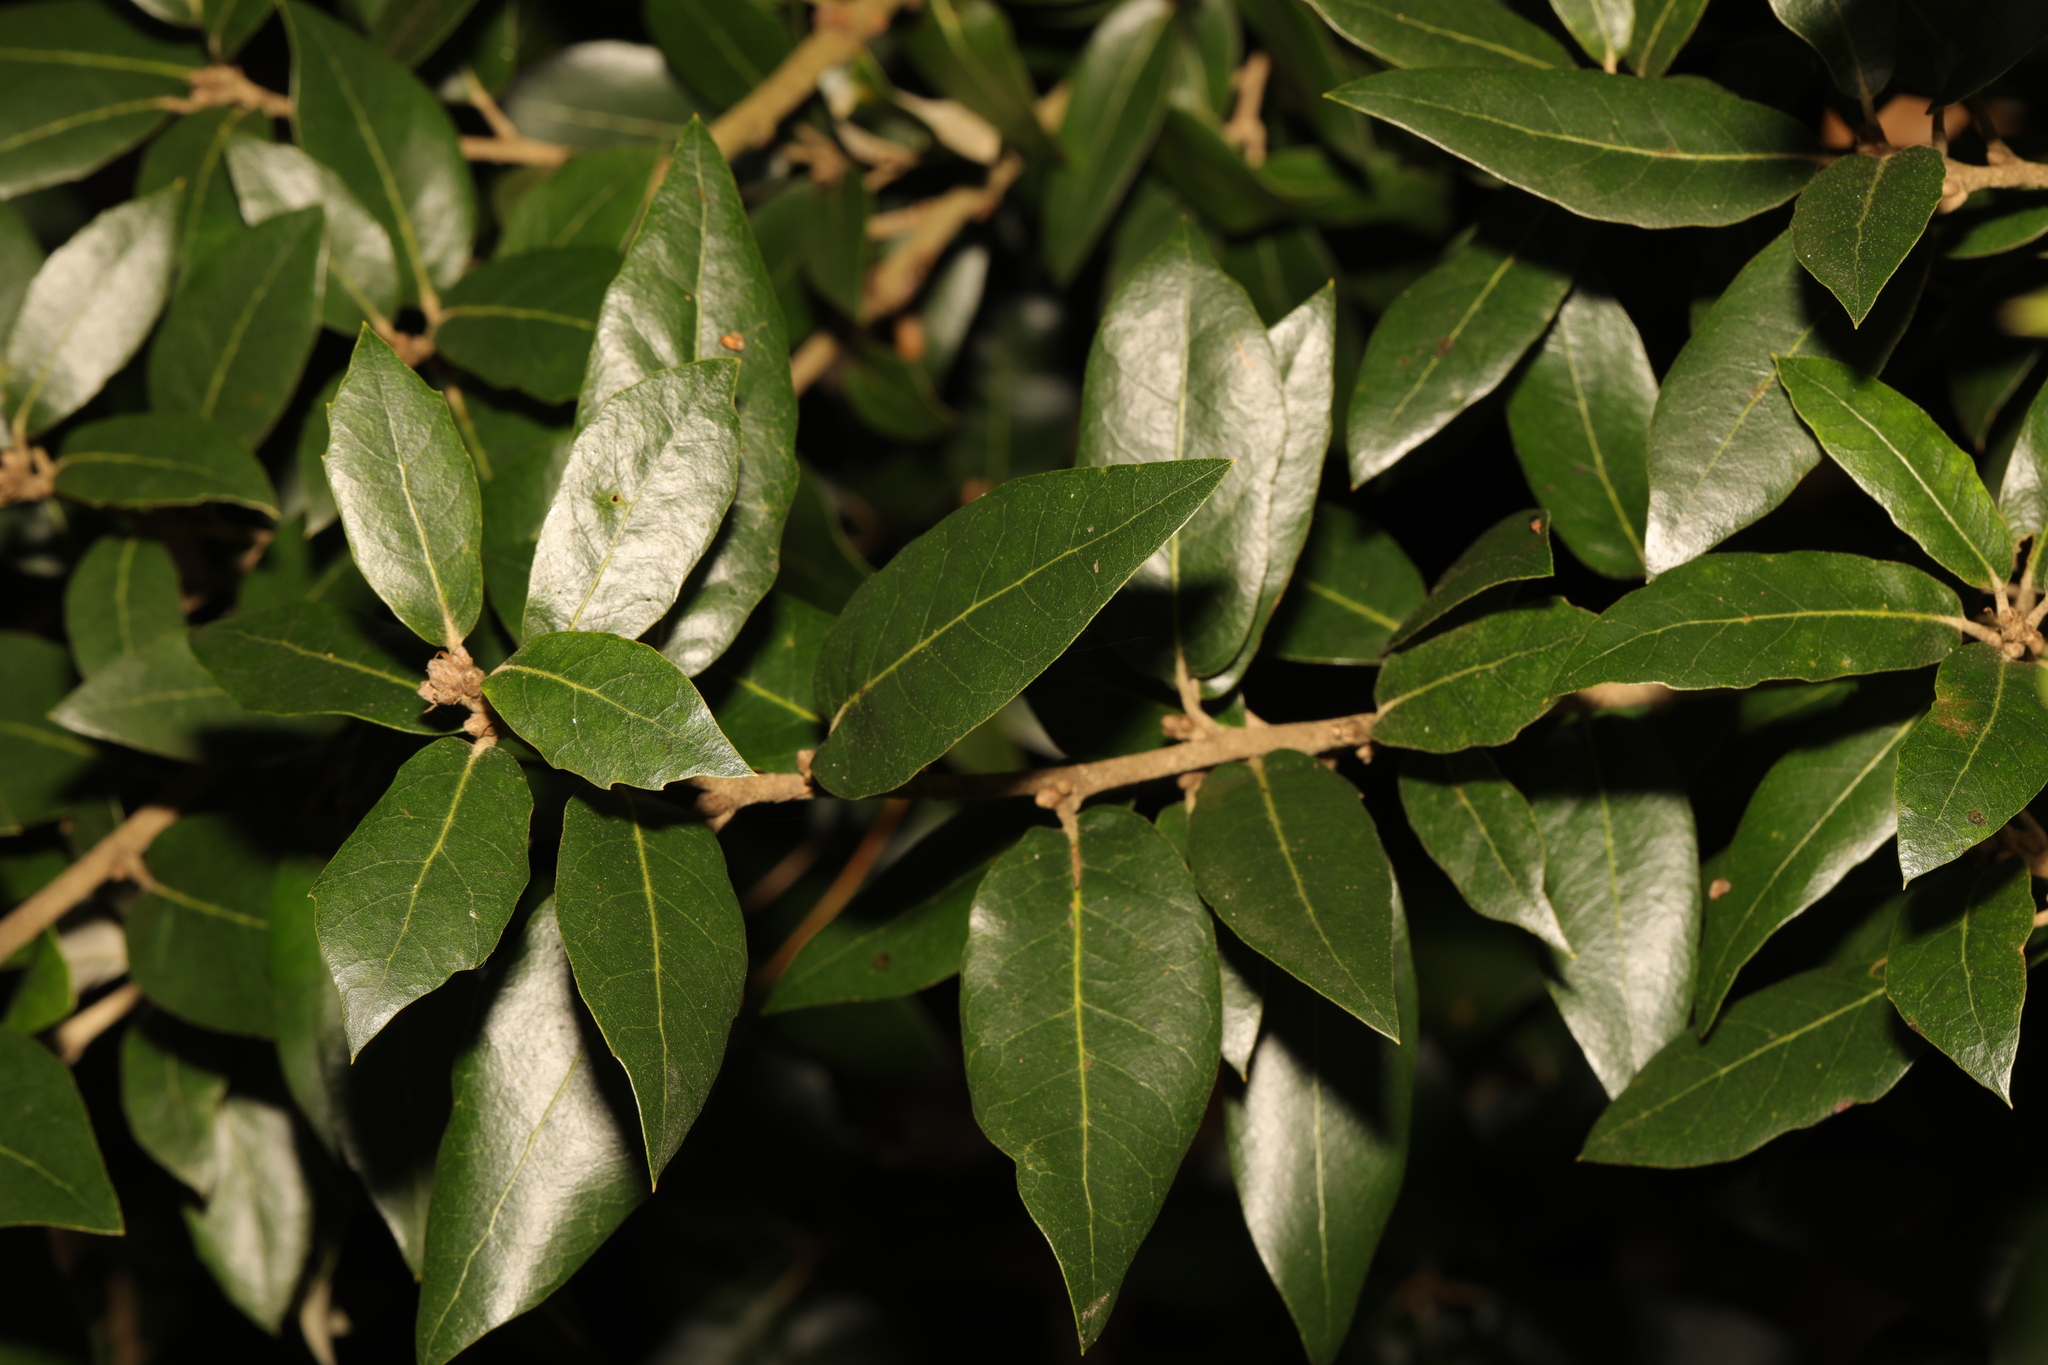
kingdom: Plantae
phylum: Tracheophyta
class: Magnoliopsida
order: Fagales
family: Fagaceae
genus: Quercus
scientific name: Quercus ilex
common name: Evergreen oak
